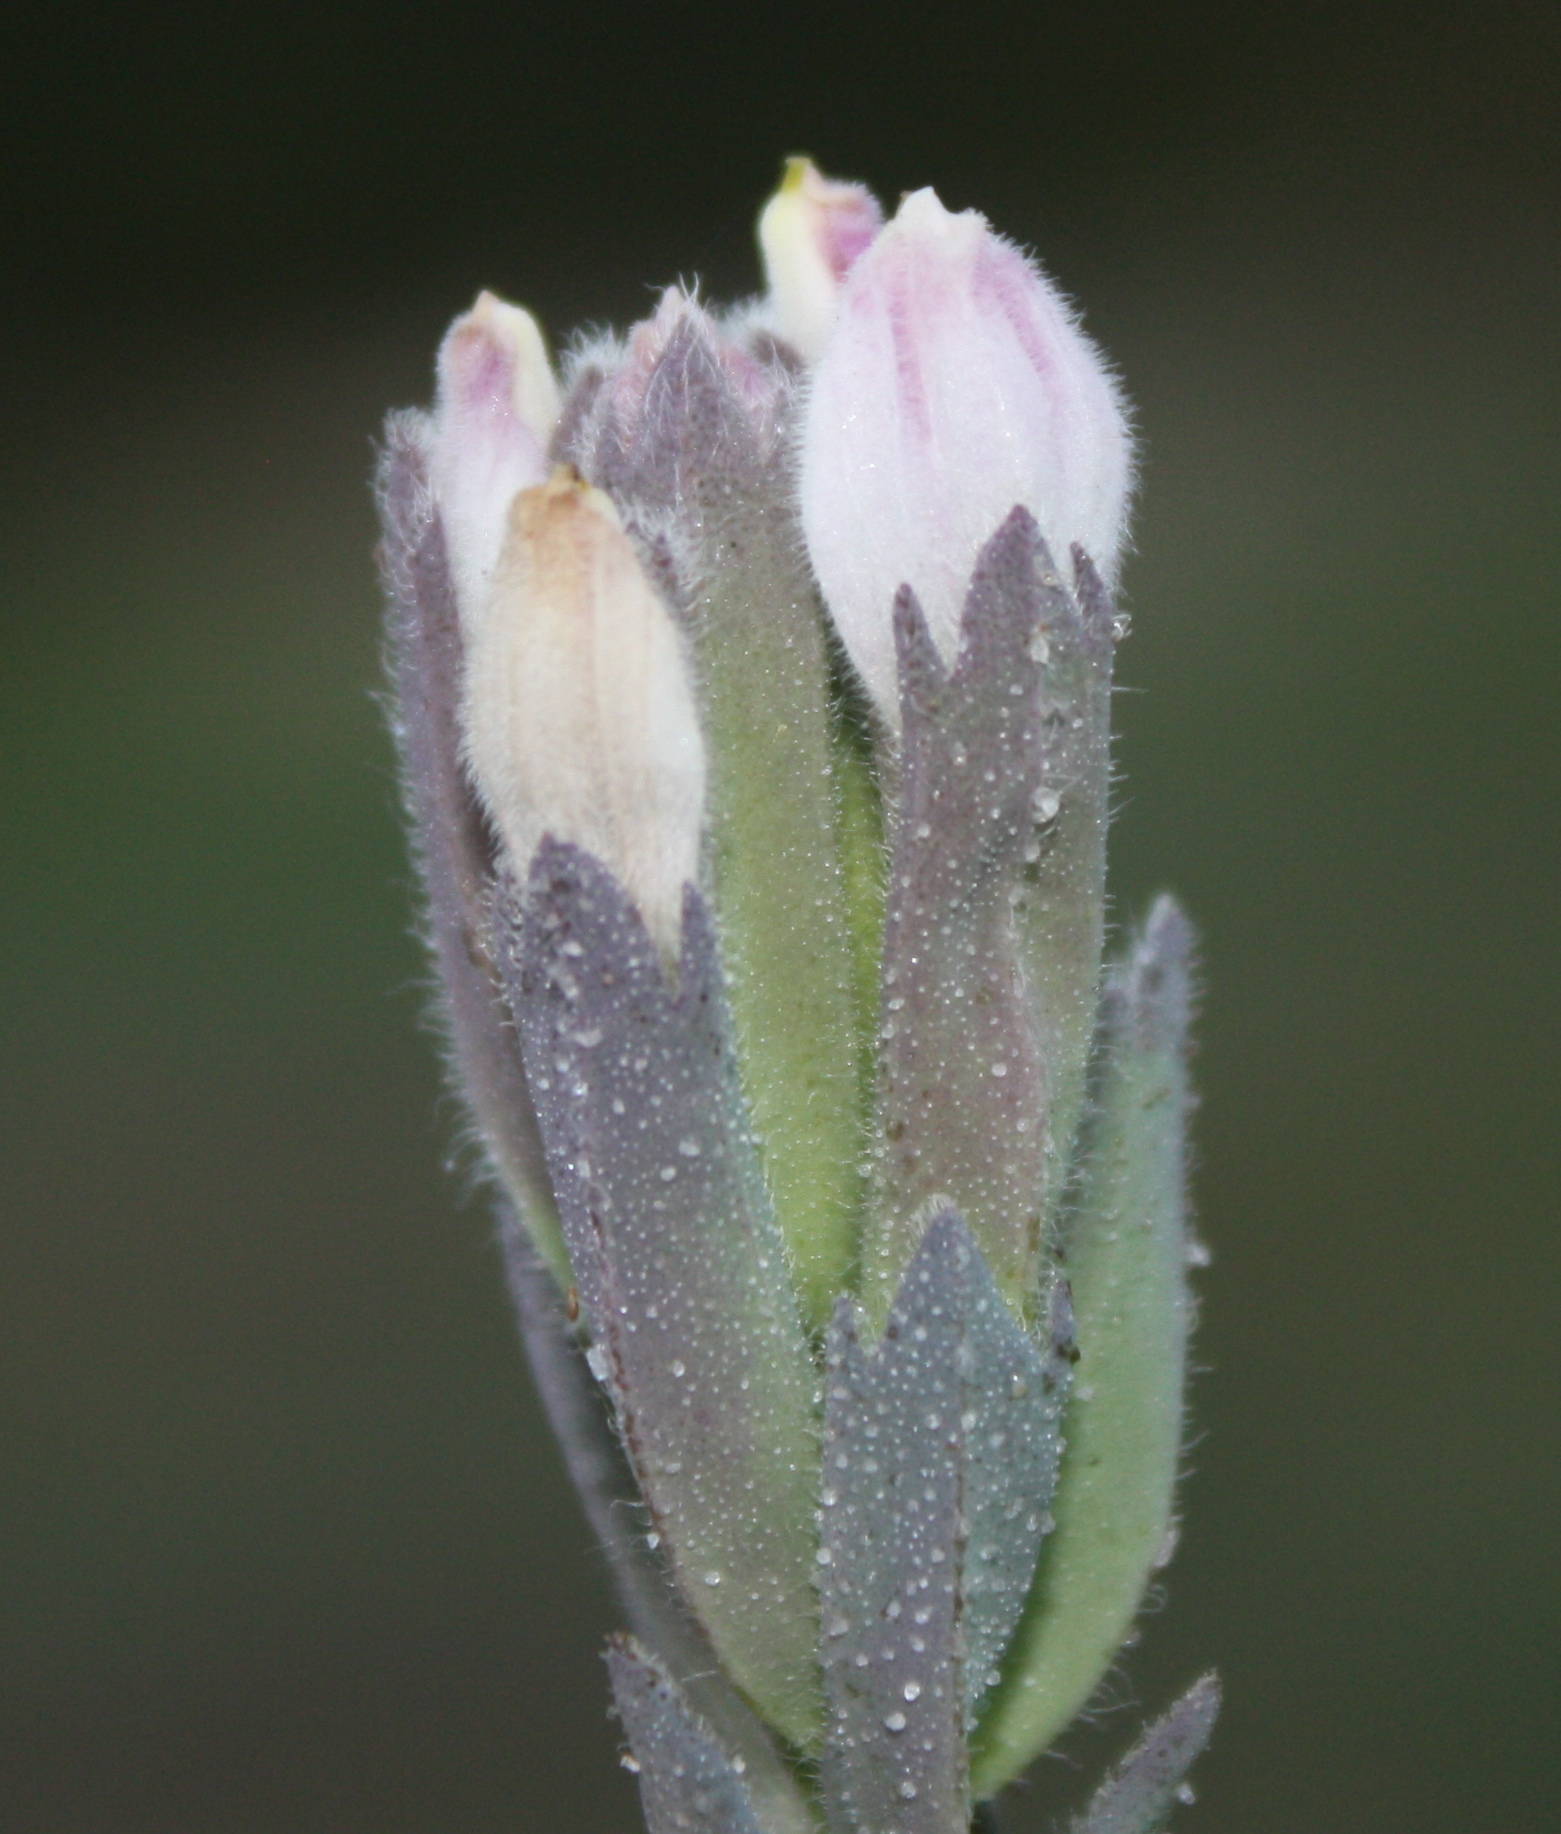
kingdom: Plantae
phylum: Tracheophyta
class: Magnoliopsida
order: Lamiales
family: Orobanchaceae
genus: Chloropyron
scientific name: Chloropyron maritimum
